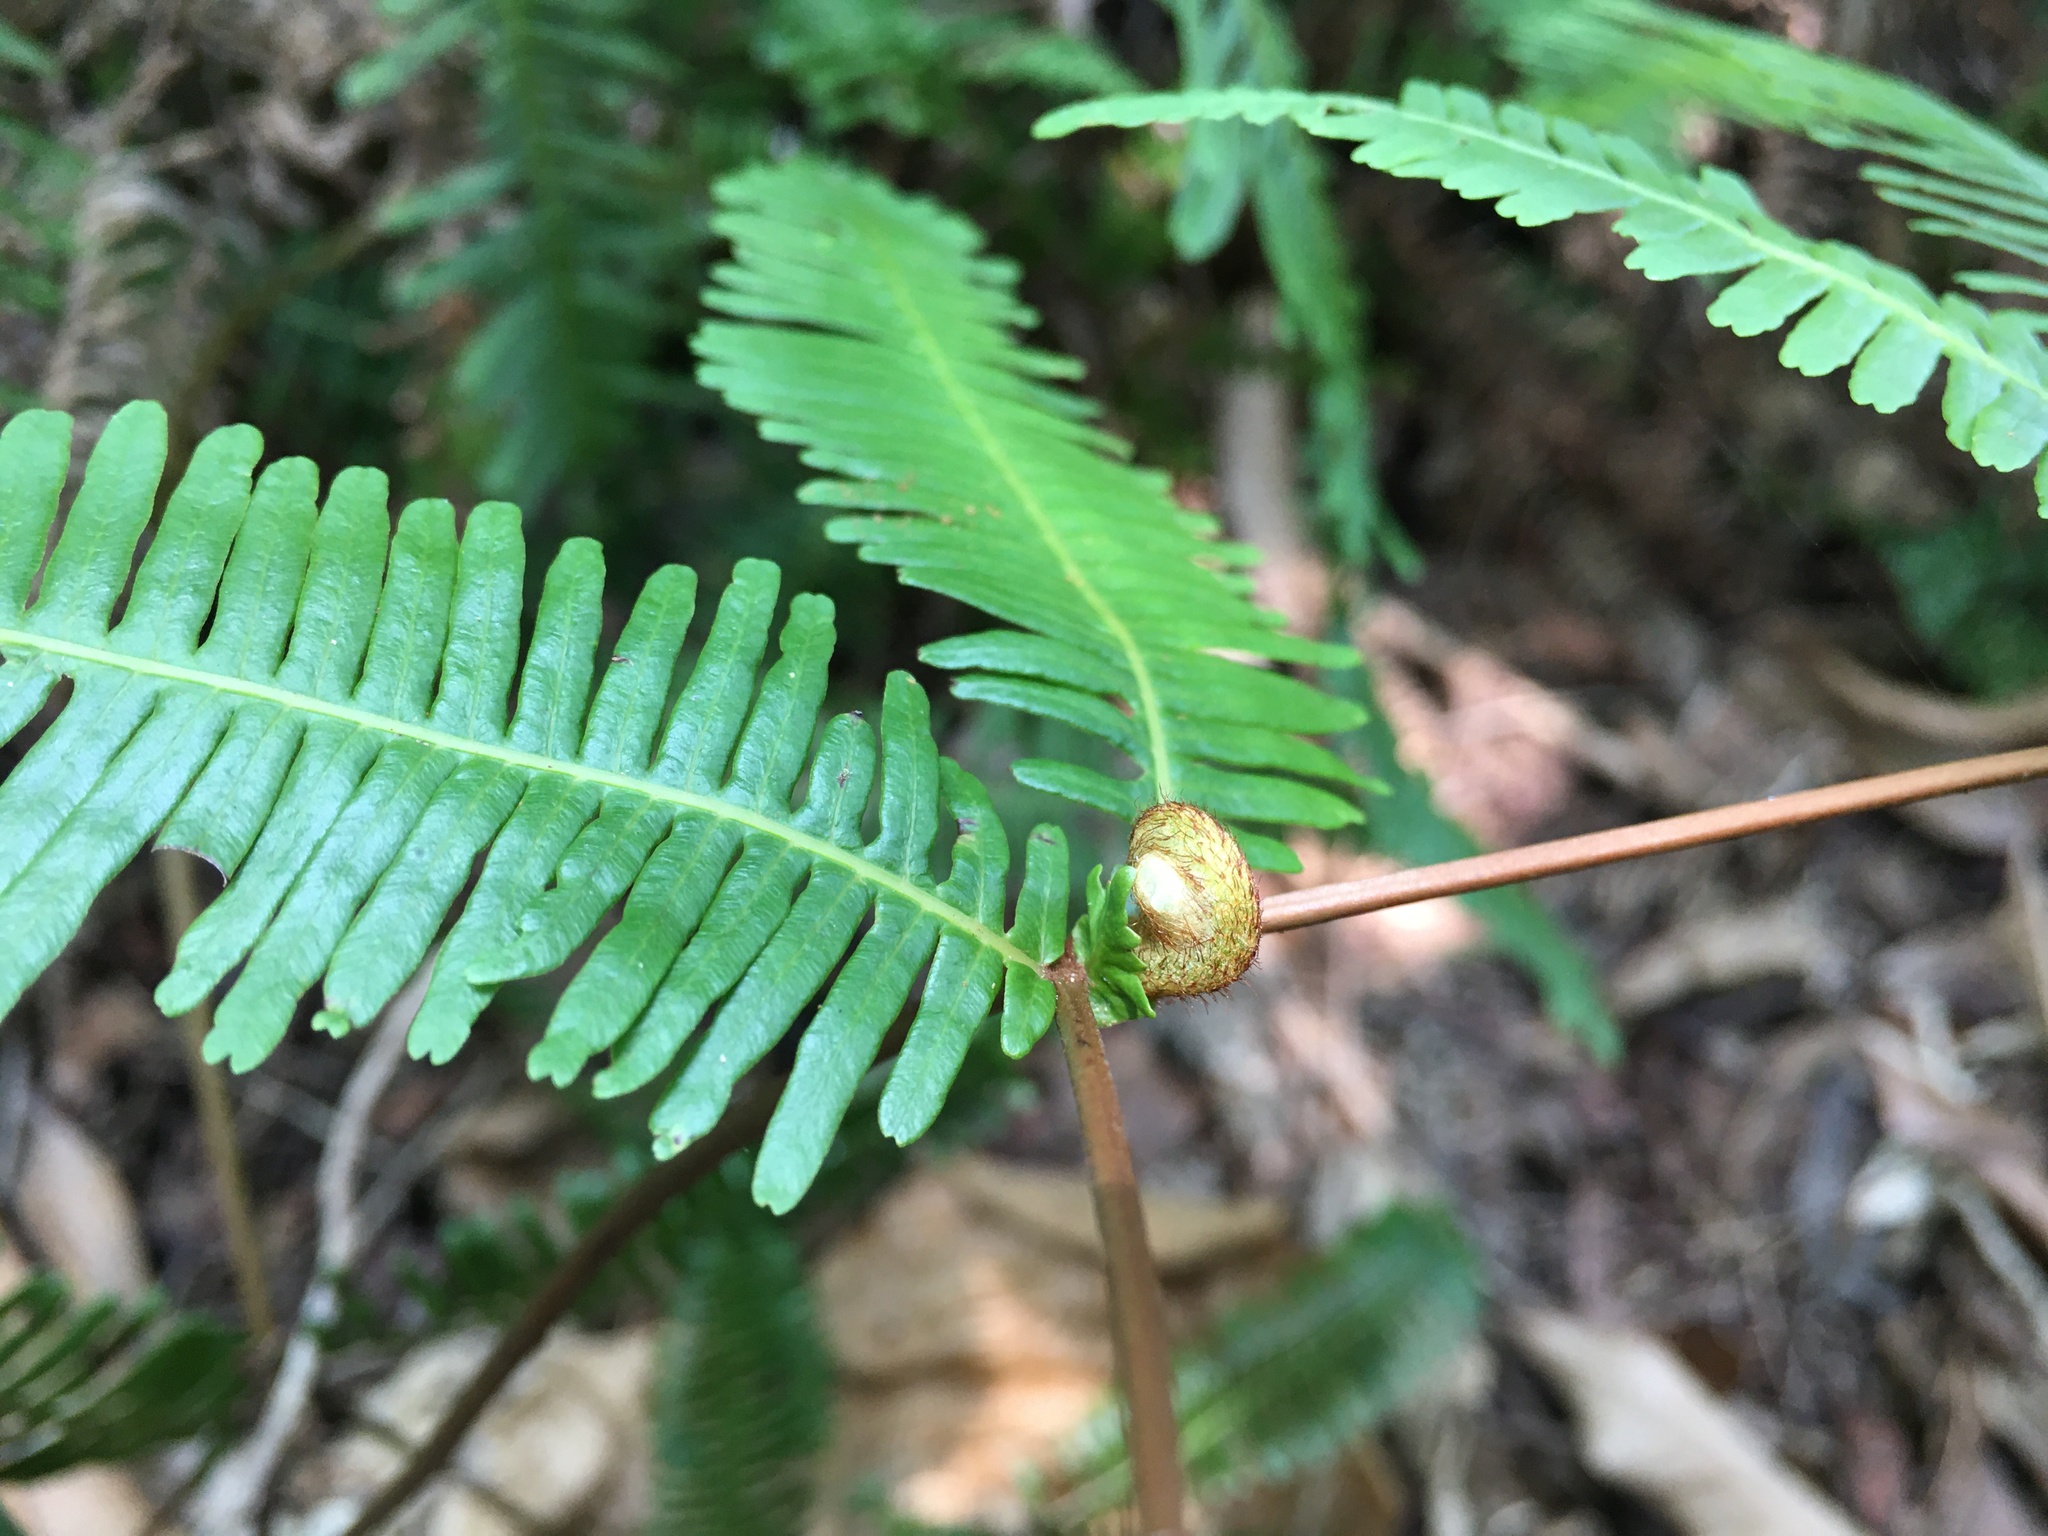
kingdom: Plantae
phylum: Tracheophyta
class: Polypodiopsida
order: Gleicheniales
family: Gleicheniaceae
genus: Dicranopteris
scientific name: Dicranopteris linearis
